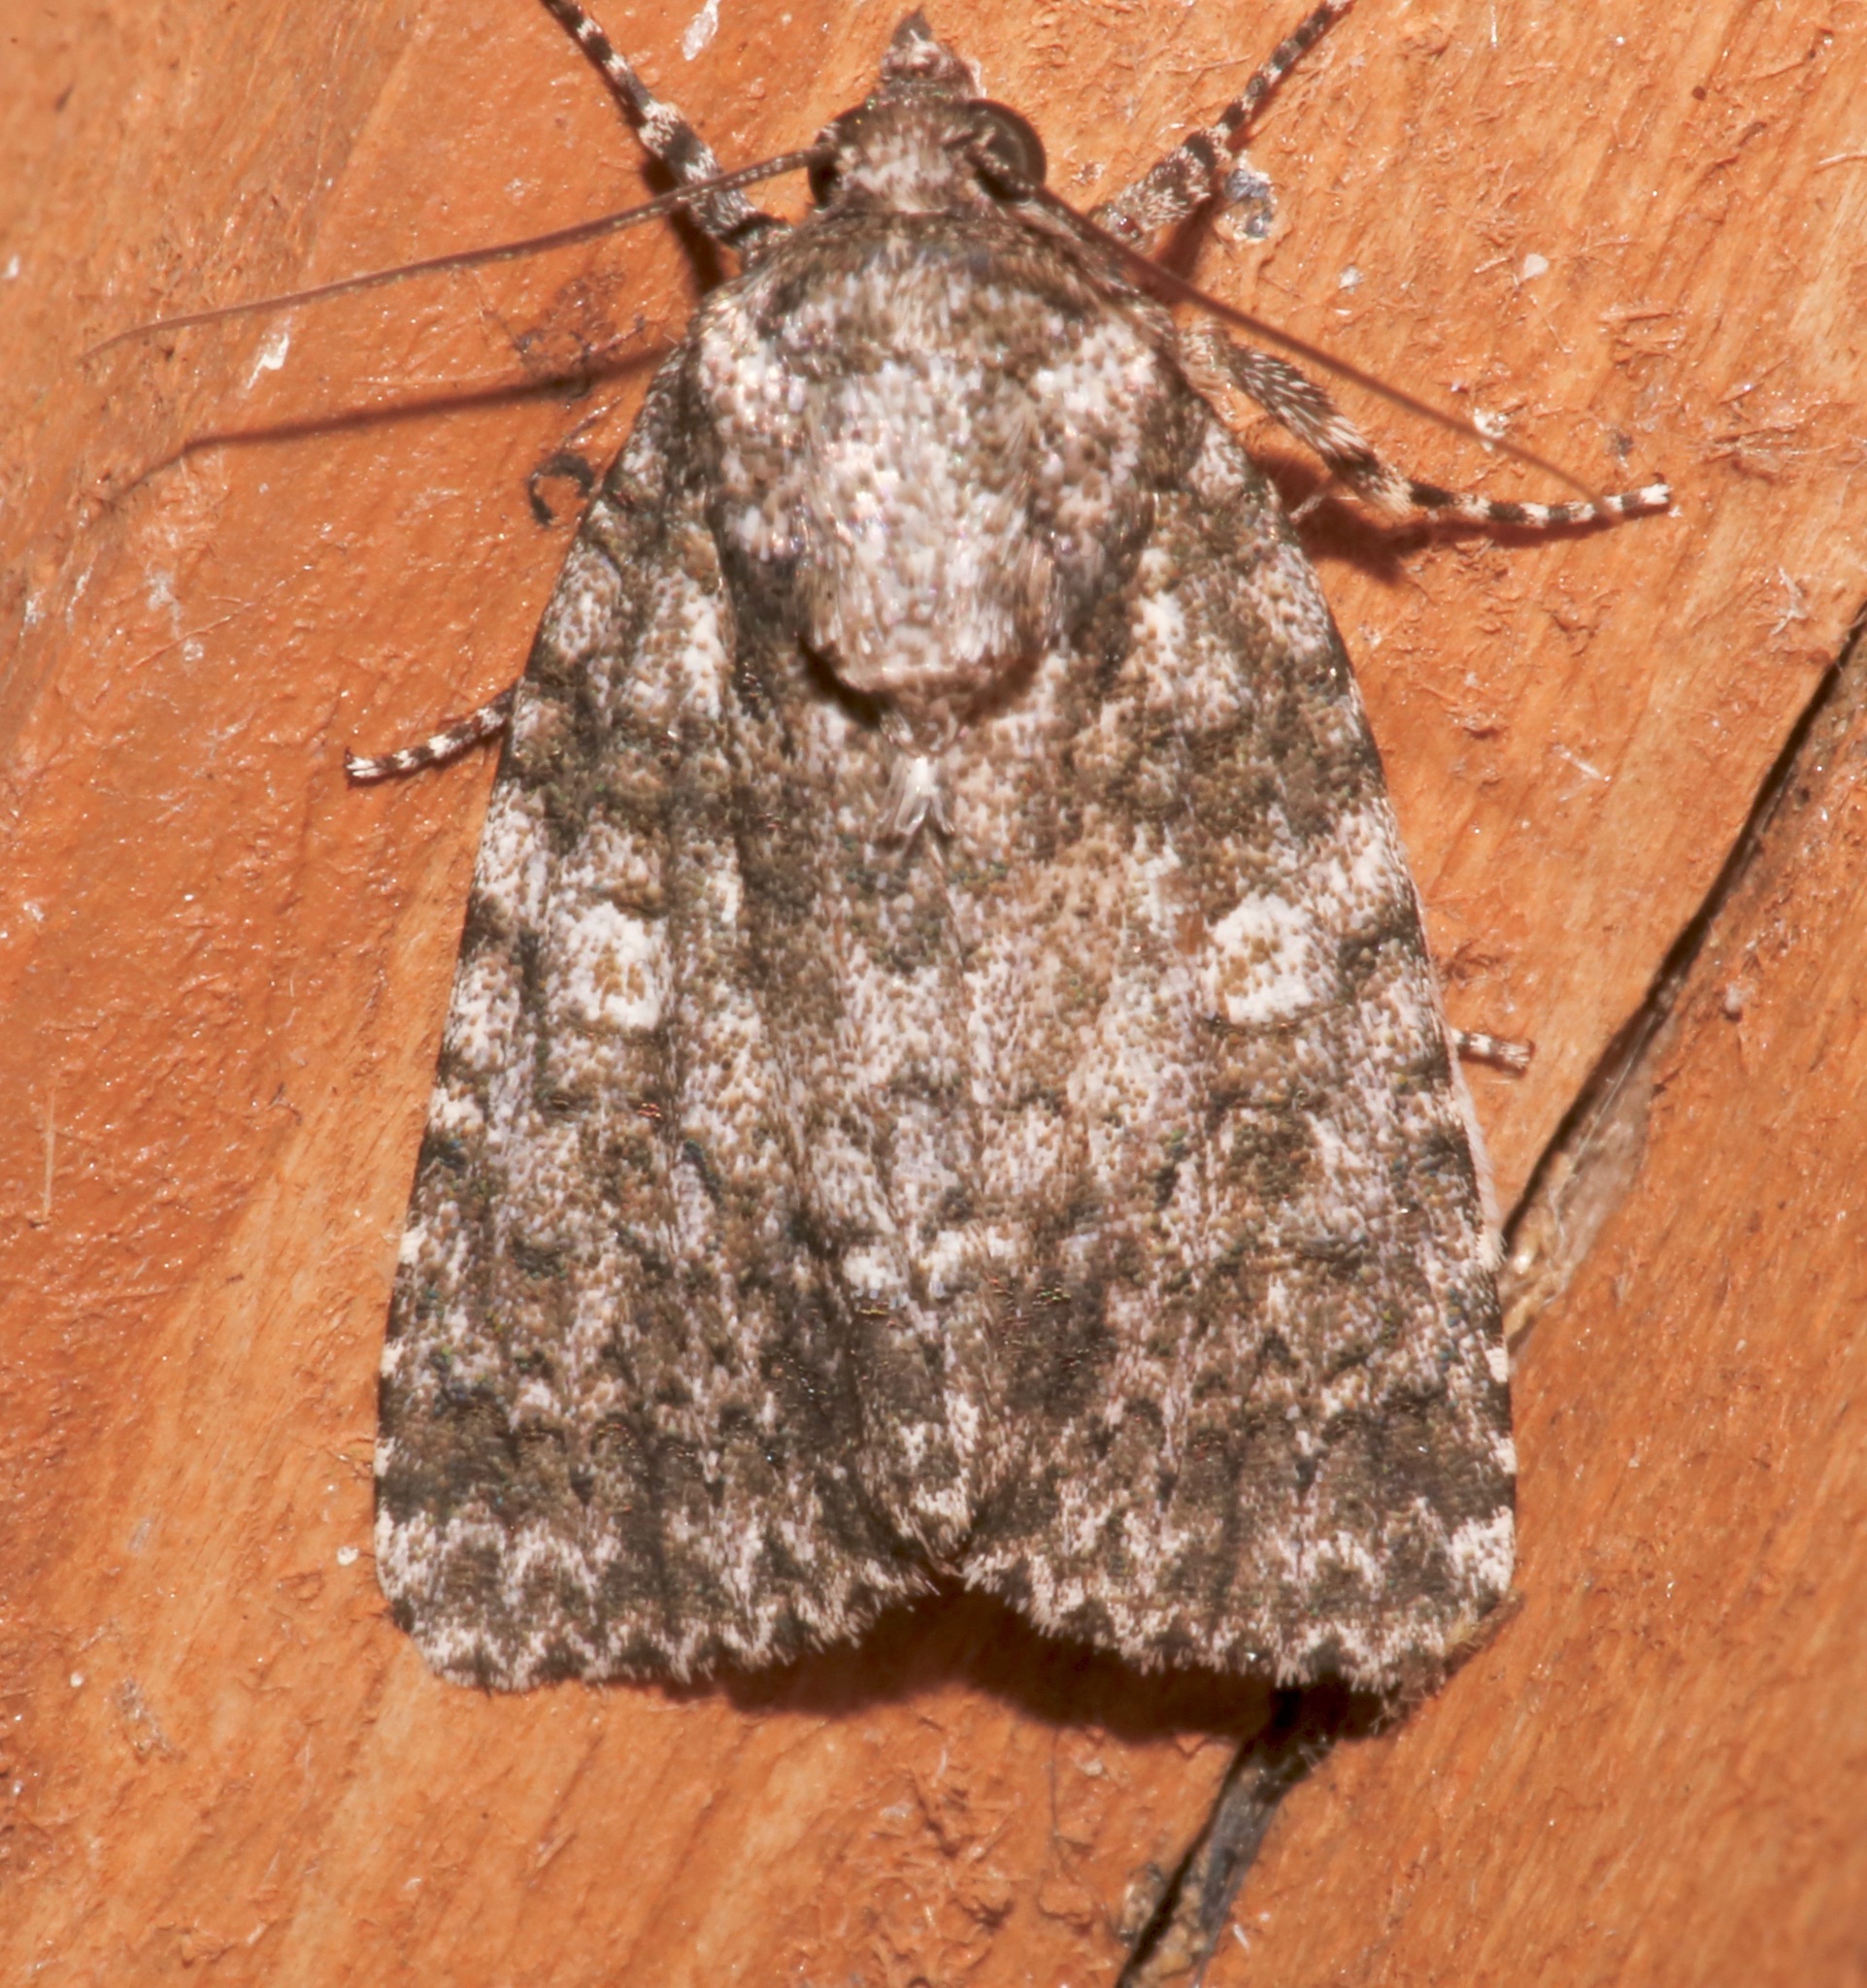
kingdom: Animalia
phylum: Arthropoda
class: Insecta
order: Lepidoptera
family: Noctuidae
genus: Acronicta
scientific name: Acronicta brumosa
